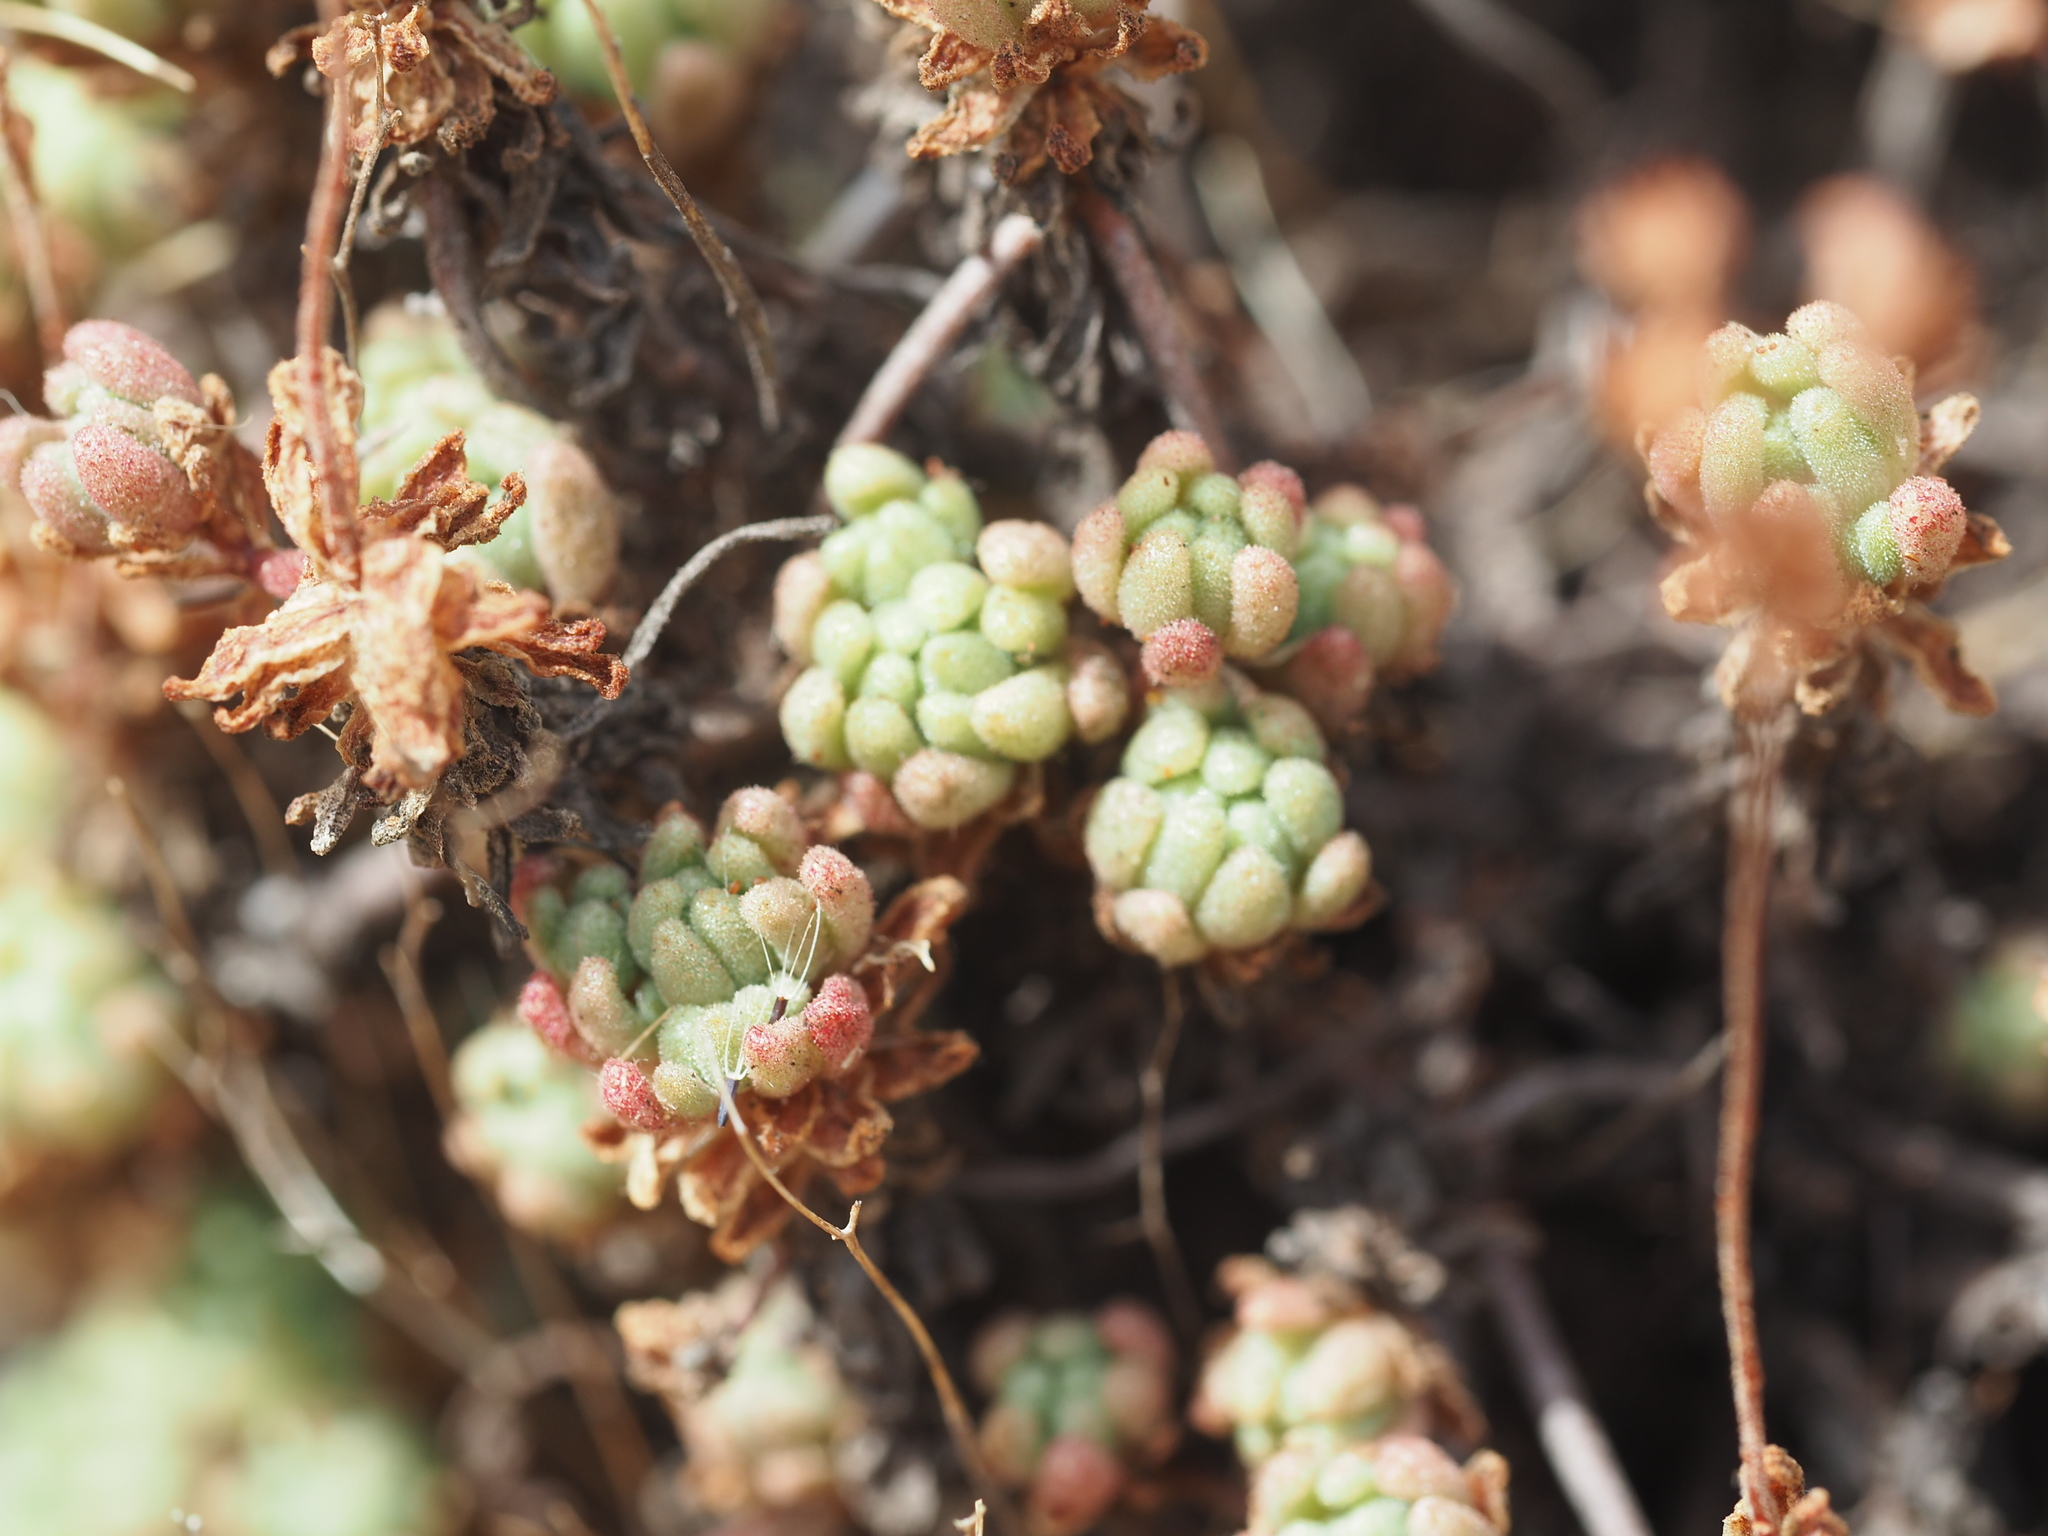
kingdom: Plantae
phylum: Tracheophyta
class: Magnoliopsida
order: Saxifragales
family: Crassulaceae
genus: Sedum
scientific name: Sedum hirsutum
